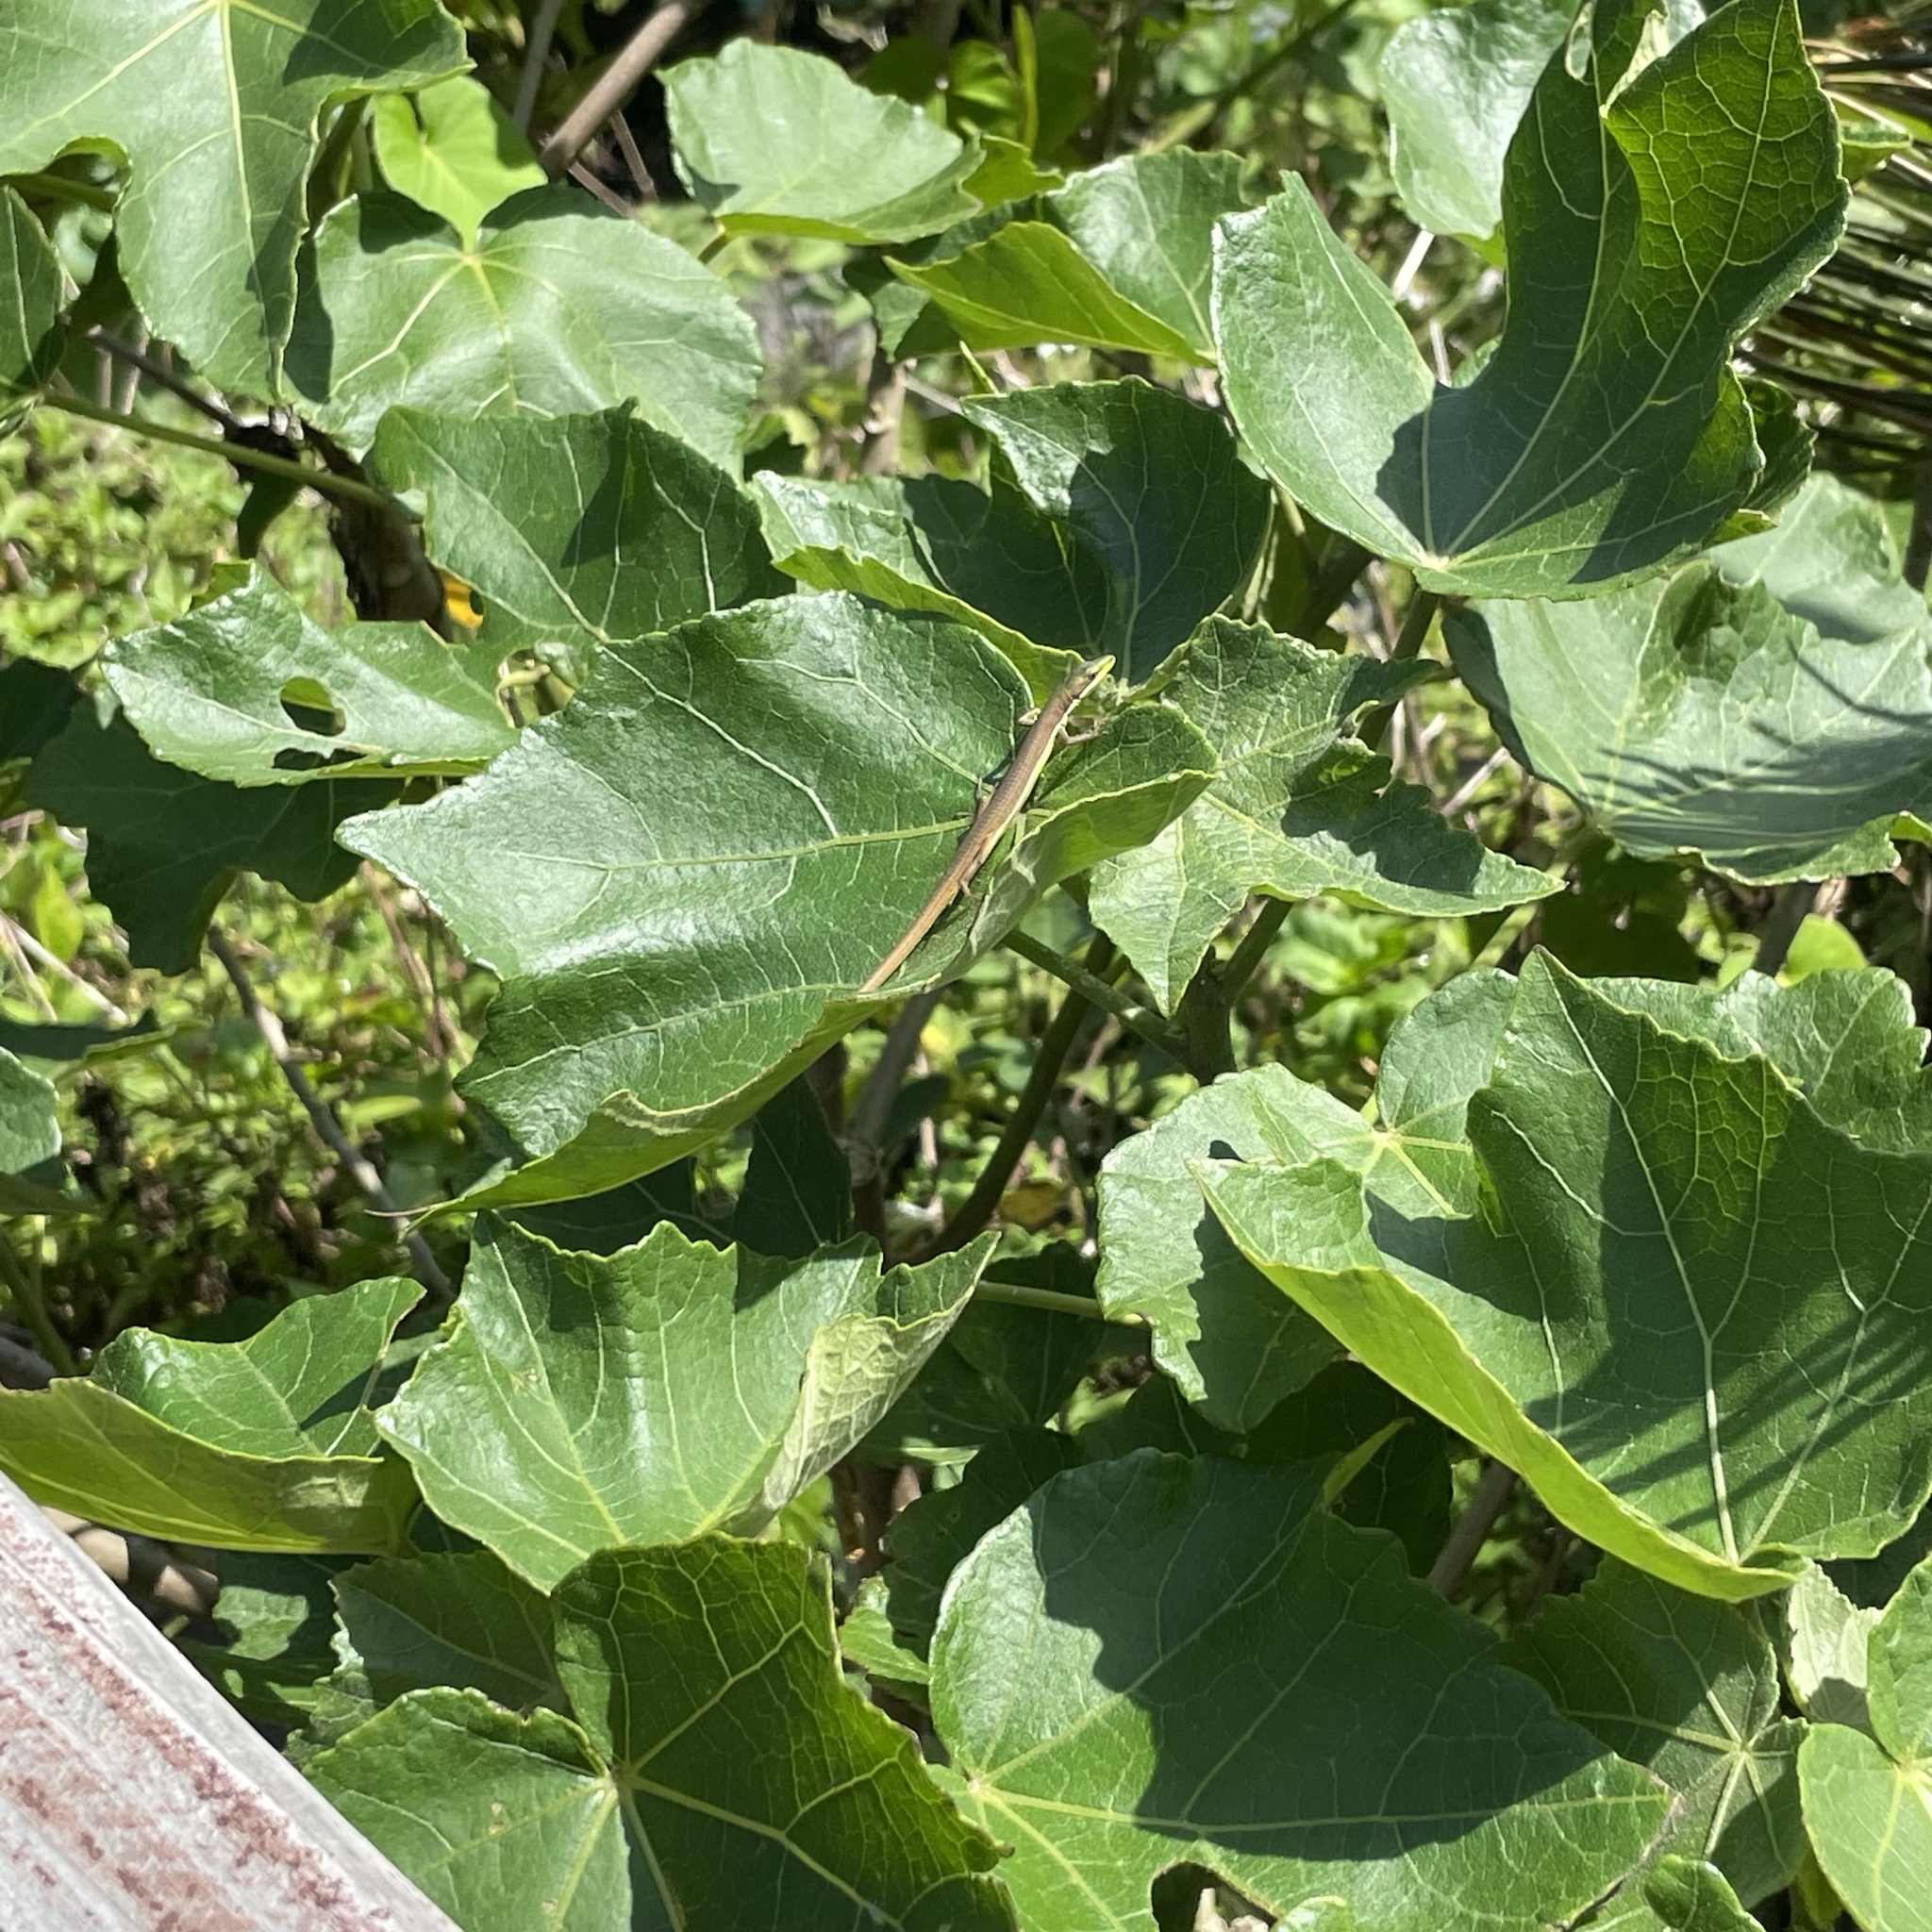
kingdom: Animalia
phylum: Chordata
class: Squamata
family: Lacertidae
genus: Takydromus
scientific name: Takydromus smaragdinus
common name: Green grass lizard
